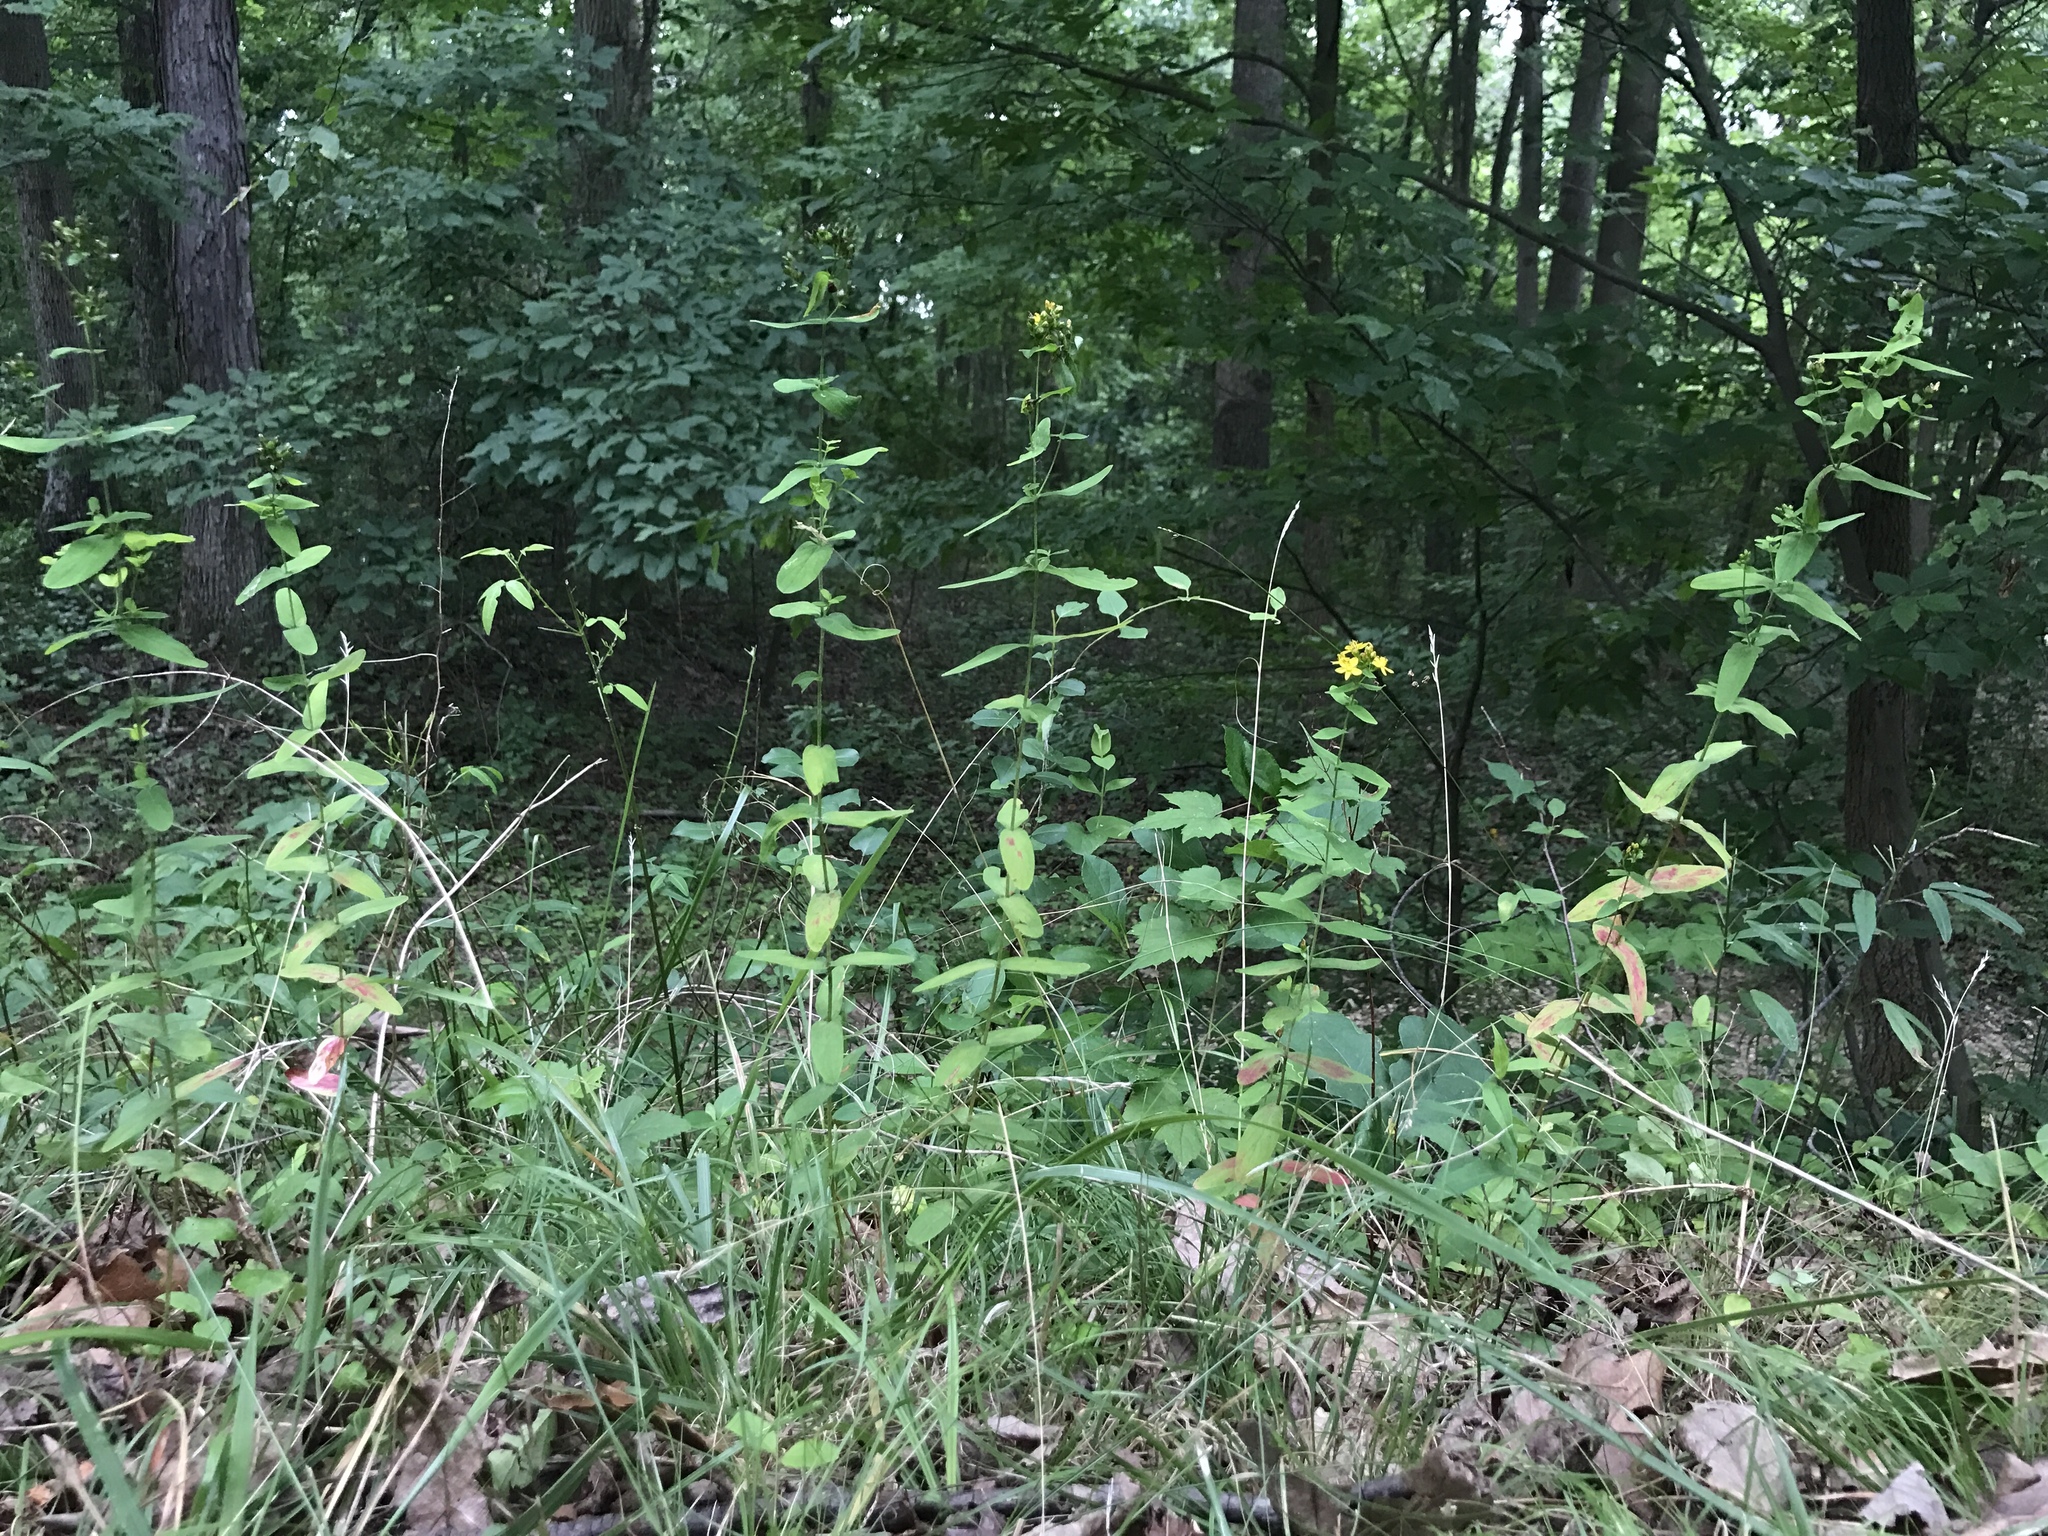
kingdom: Plantae
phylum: Tracheophyta
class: Magnoliopsida
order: Malpighiales
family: Hypericaceae
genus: Hypericum
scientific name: Hypericum punctatum
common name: Spotted st. john's-wort
